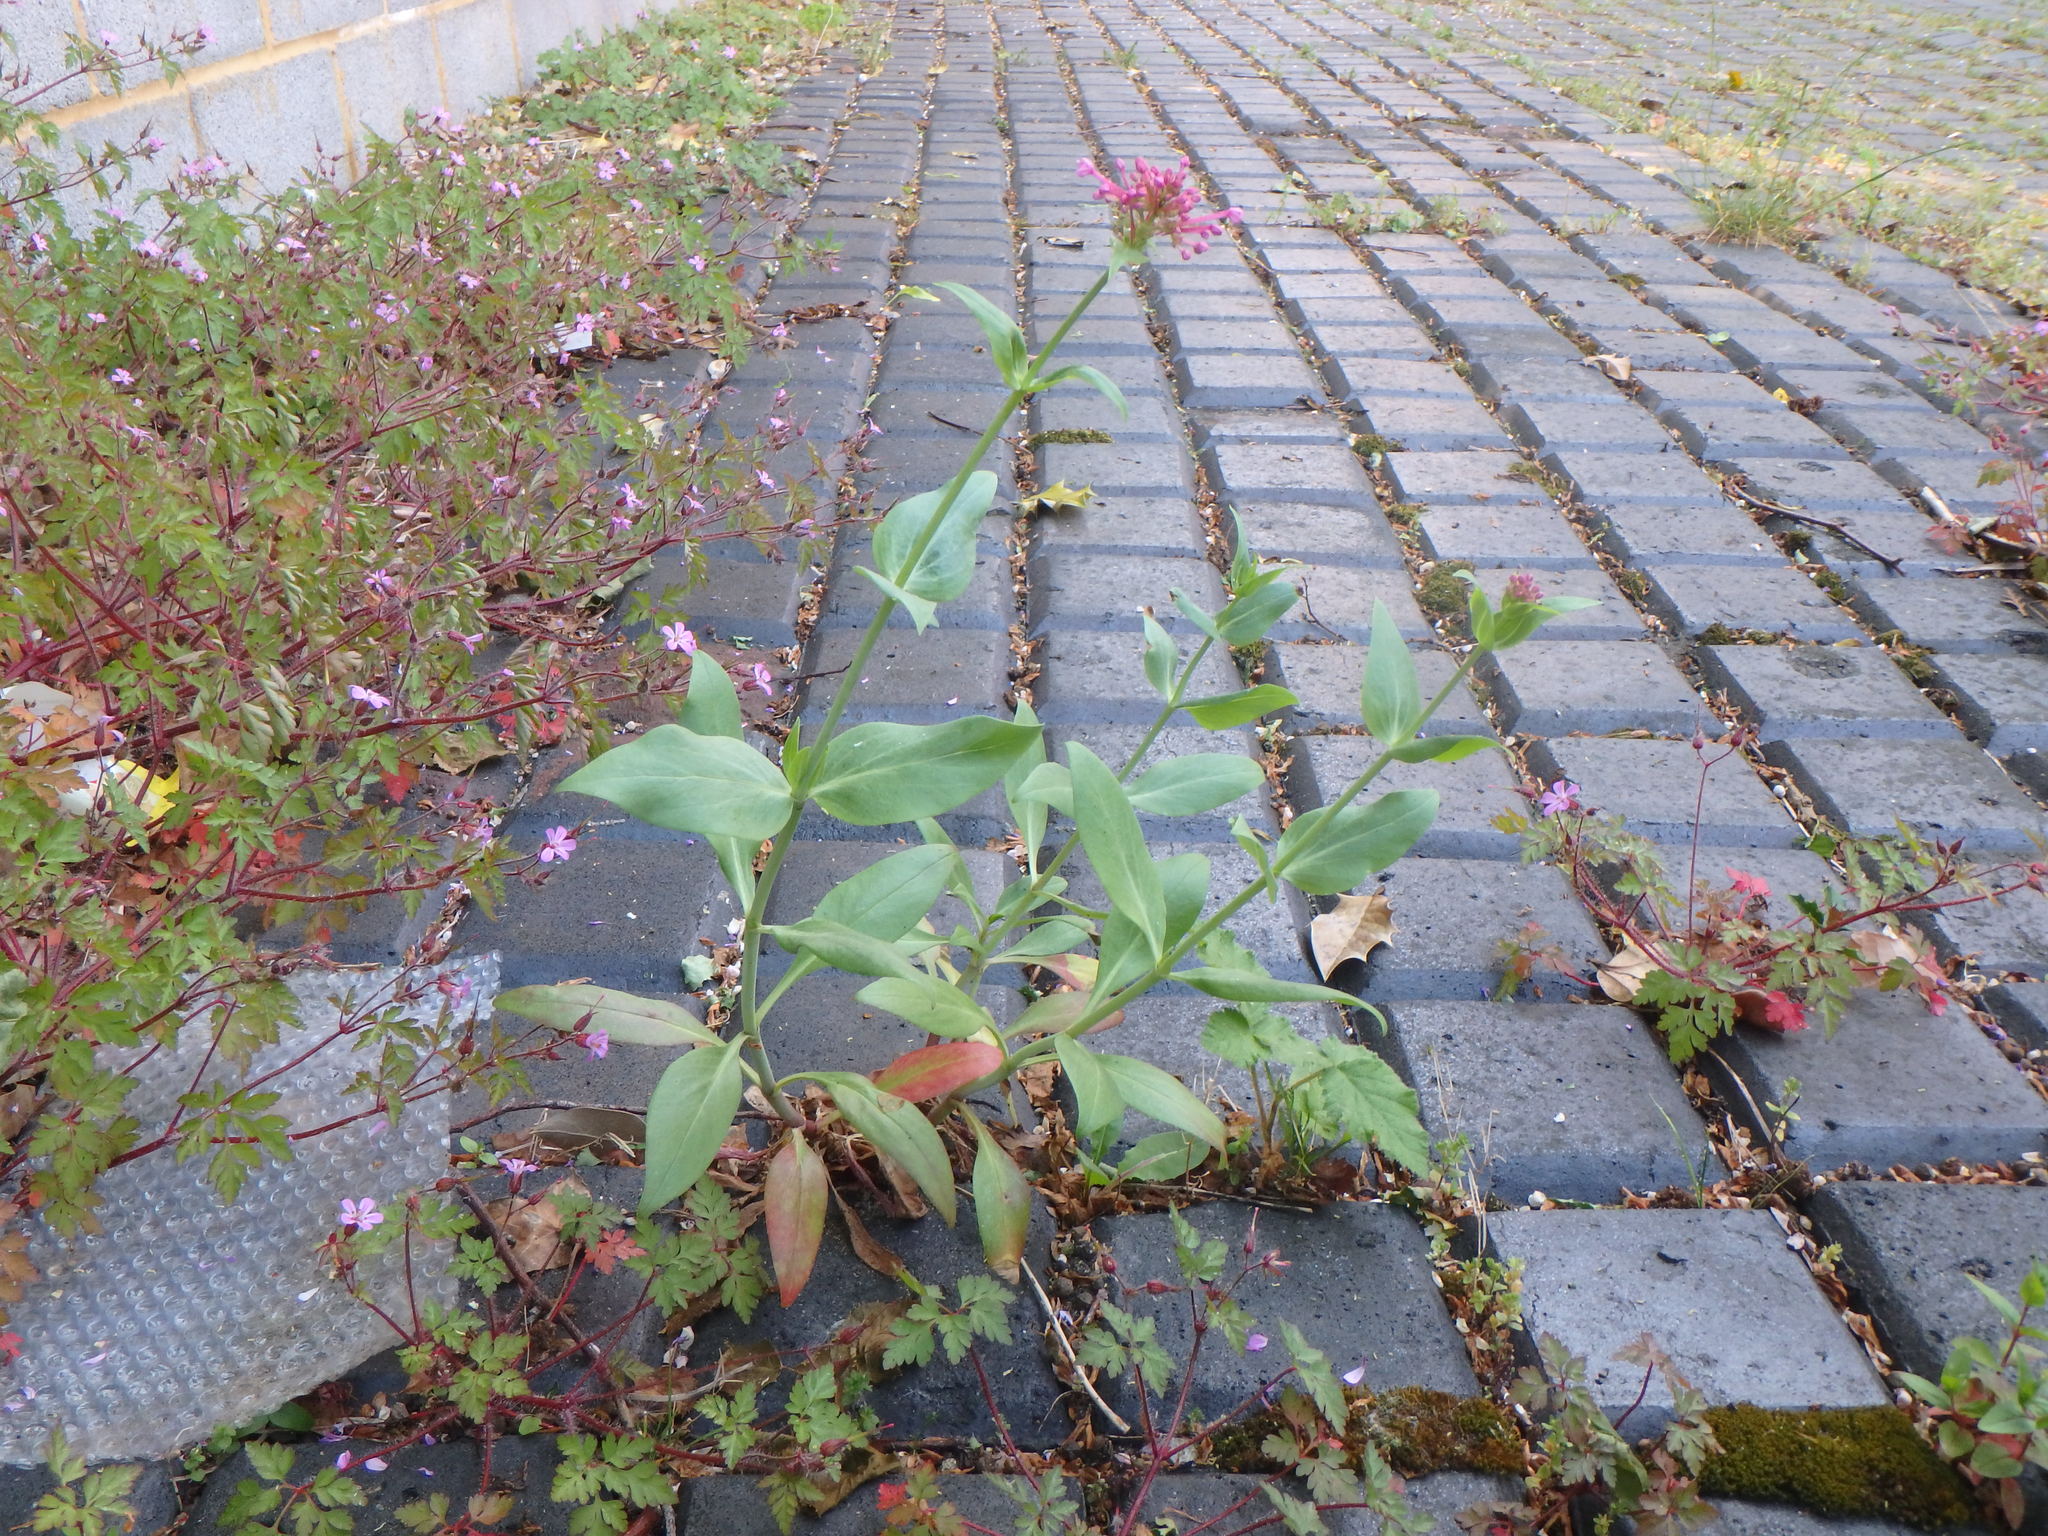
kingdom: Plantae
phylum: Tracheophyta
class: Magnoliopsida
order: Dipsacales
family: Caprifoliaceae
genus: Centranthus
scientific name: Centranthus ruber
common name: Red valerian
